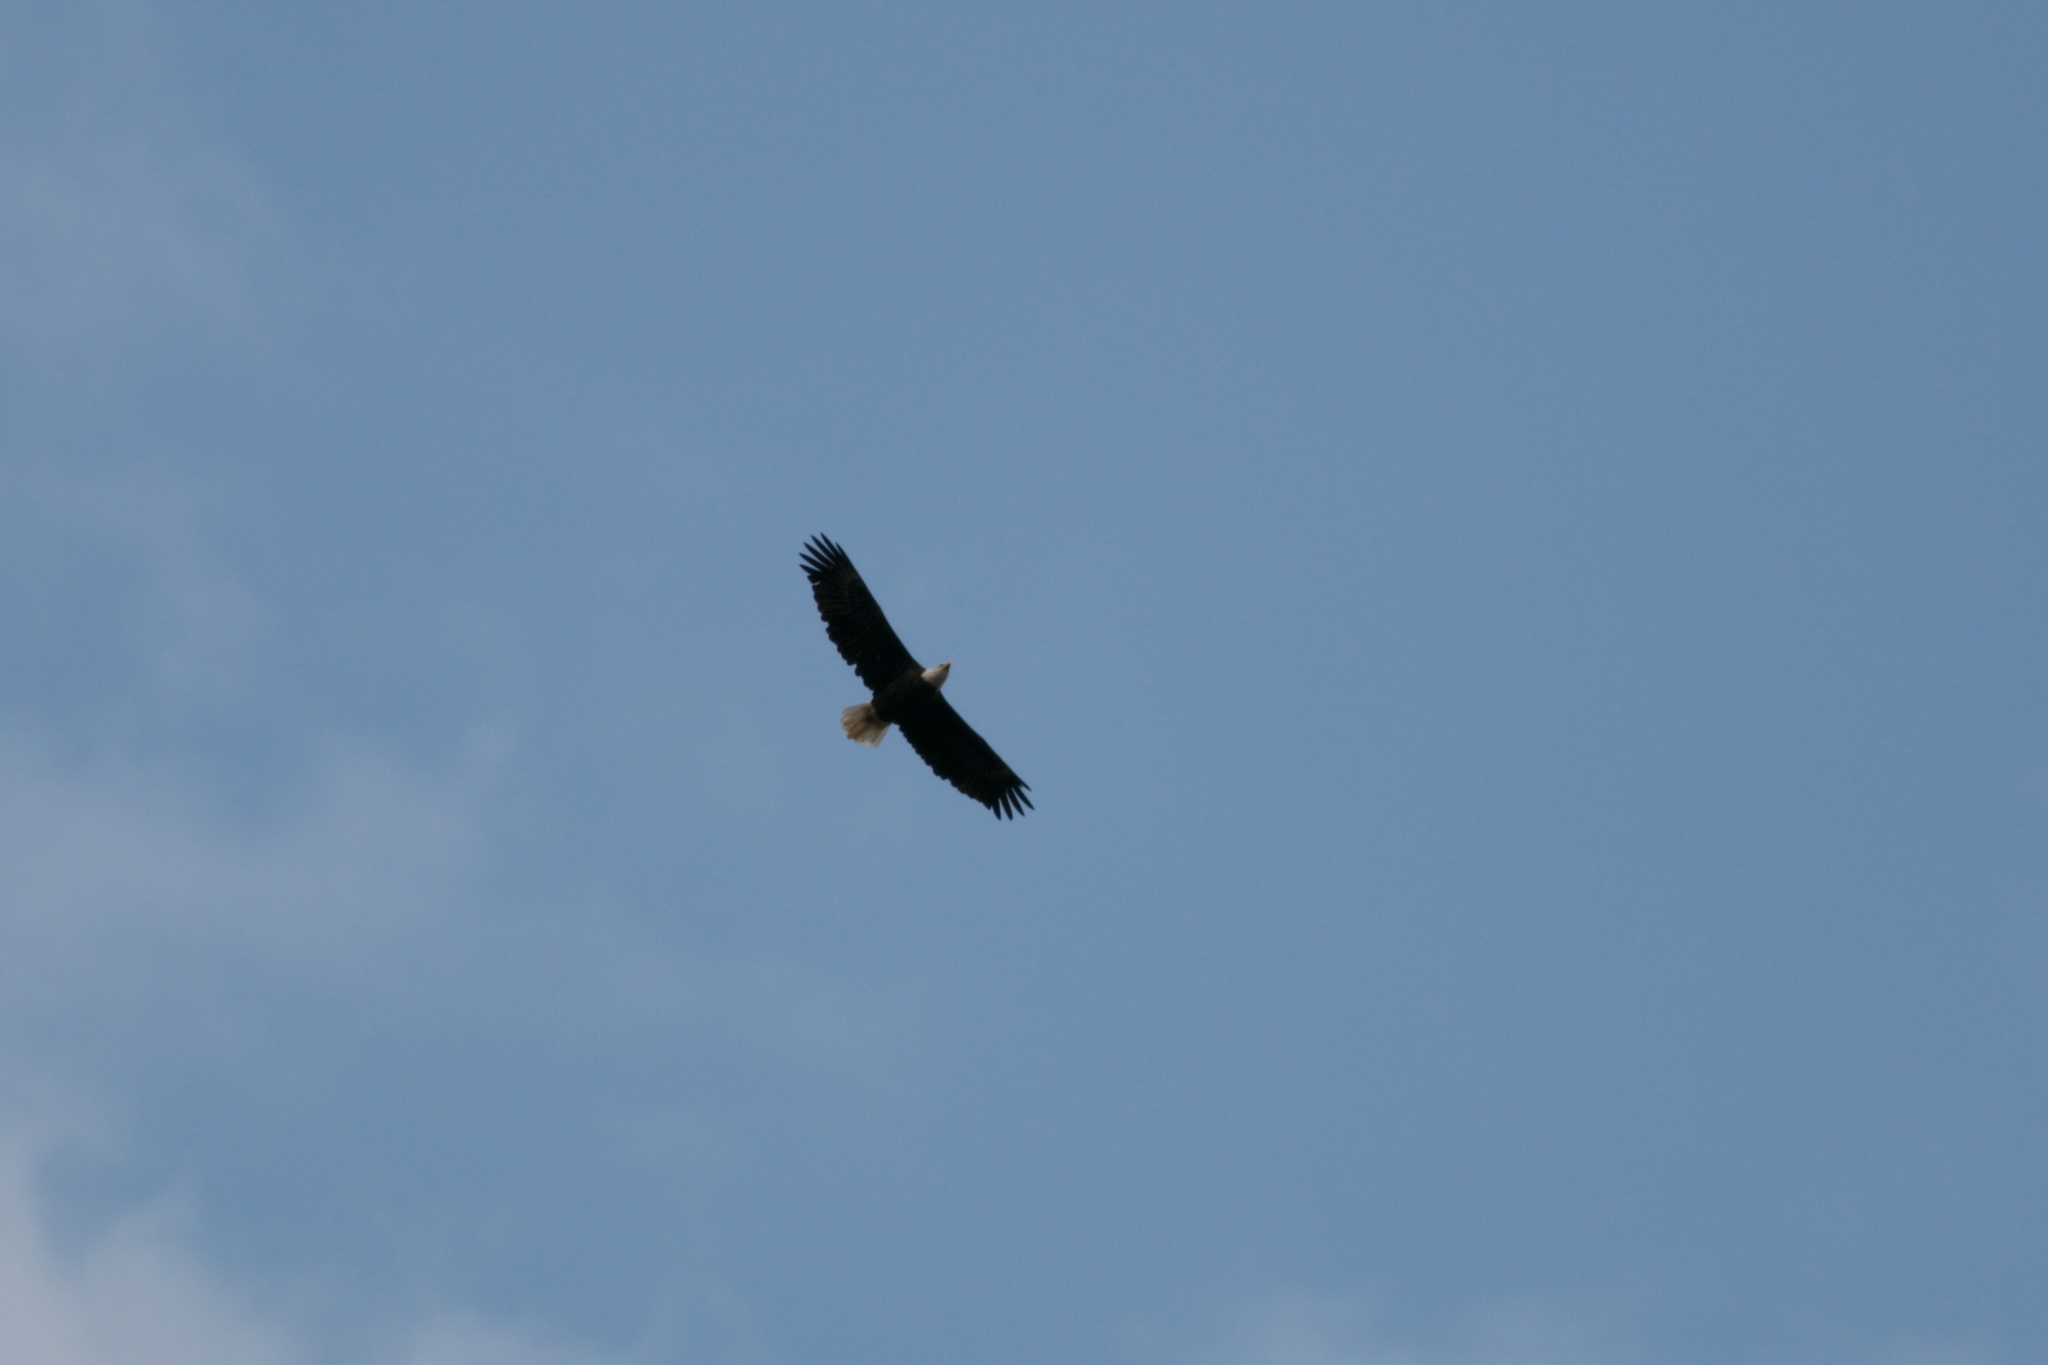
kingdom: Animalia
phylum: Chordata
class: Aves
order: Accipitriformes
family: Accipitridae
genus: Haliaeetus
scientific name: Haliaeetus leucocephalus
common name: Bald eagle
